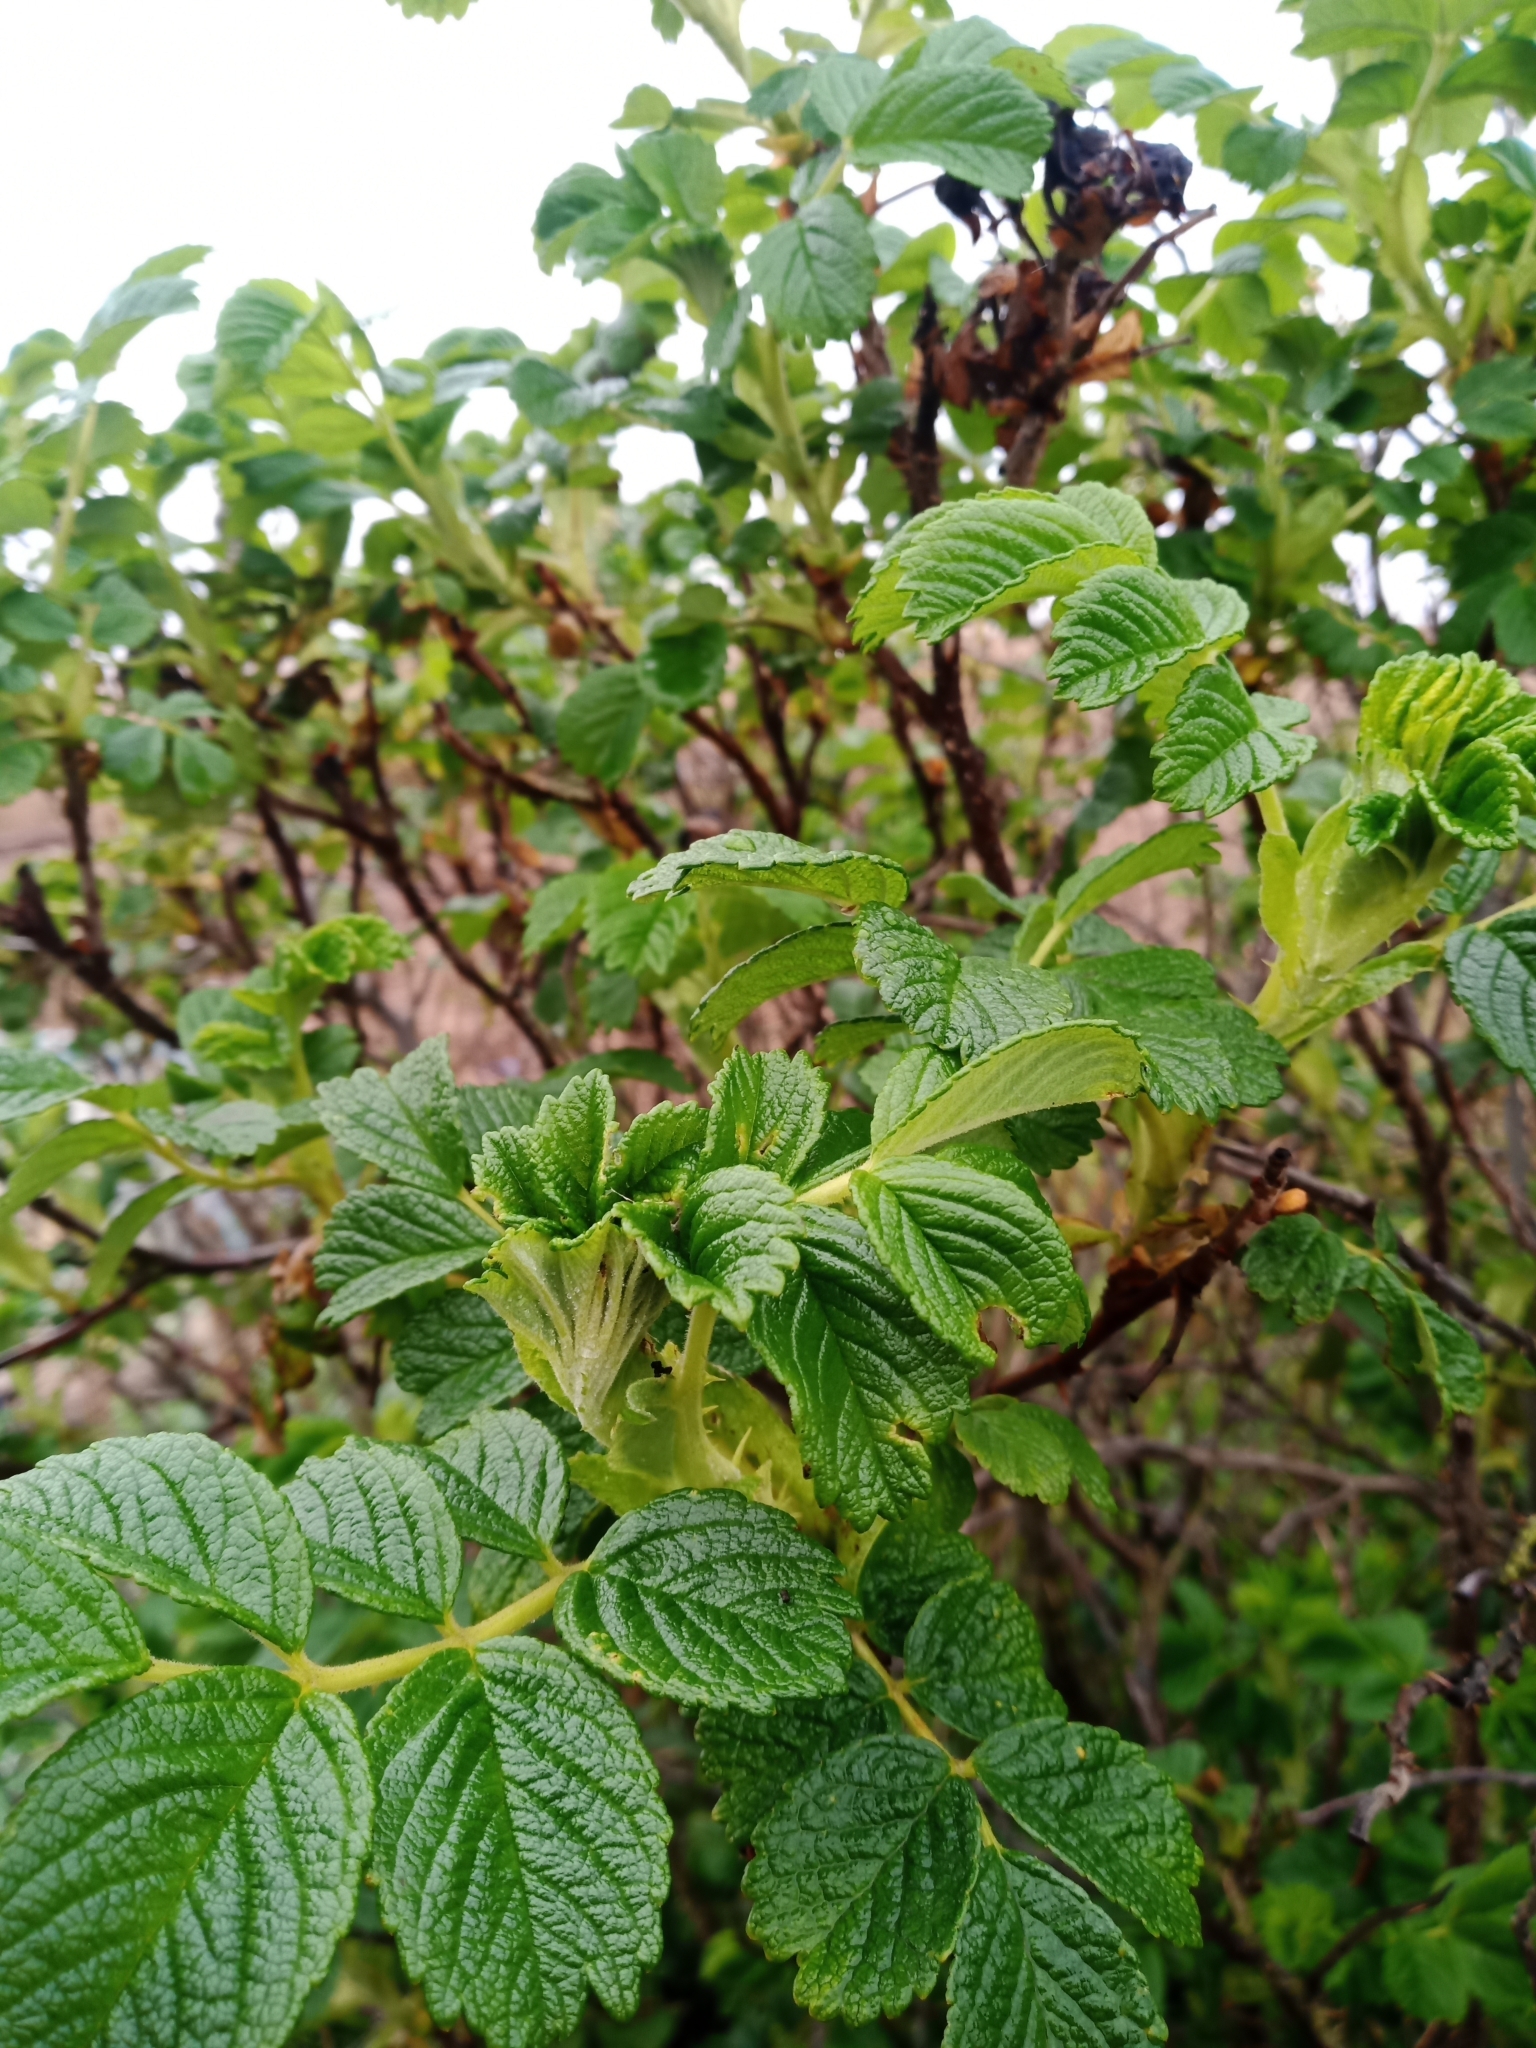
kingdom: Plantae
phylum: Tracheophyta
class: Magnoliopsida
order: Rosales
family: Rosaceae
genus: Rosa
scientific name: Rosa rugosa
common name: Japanese rose
